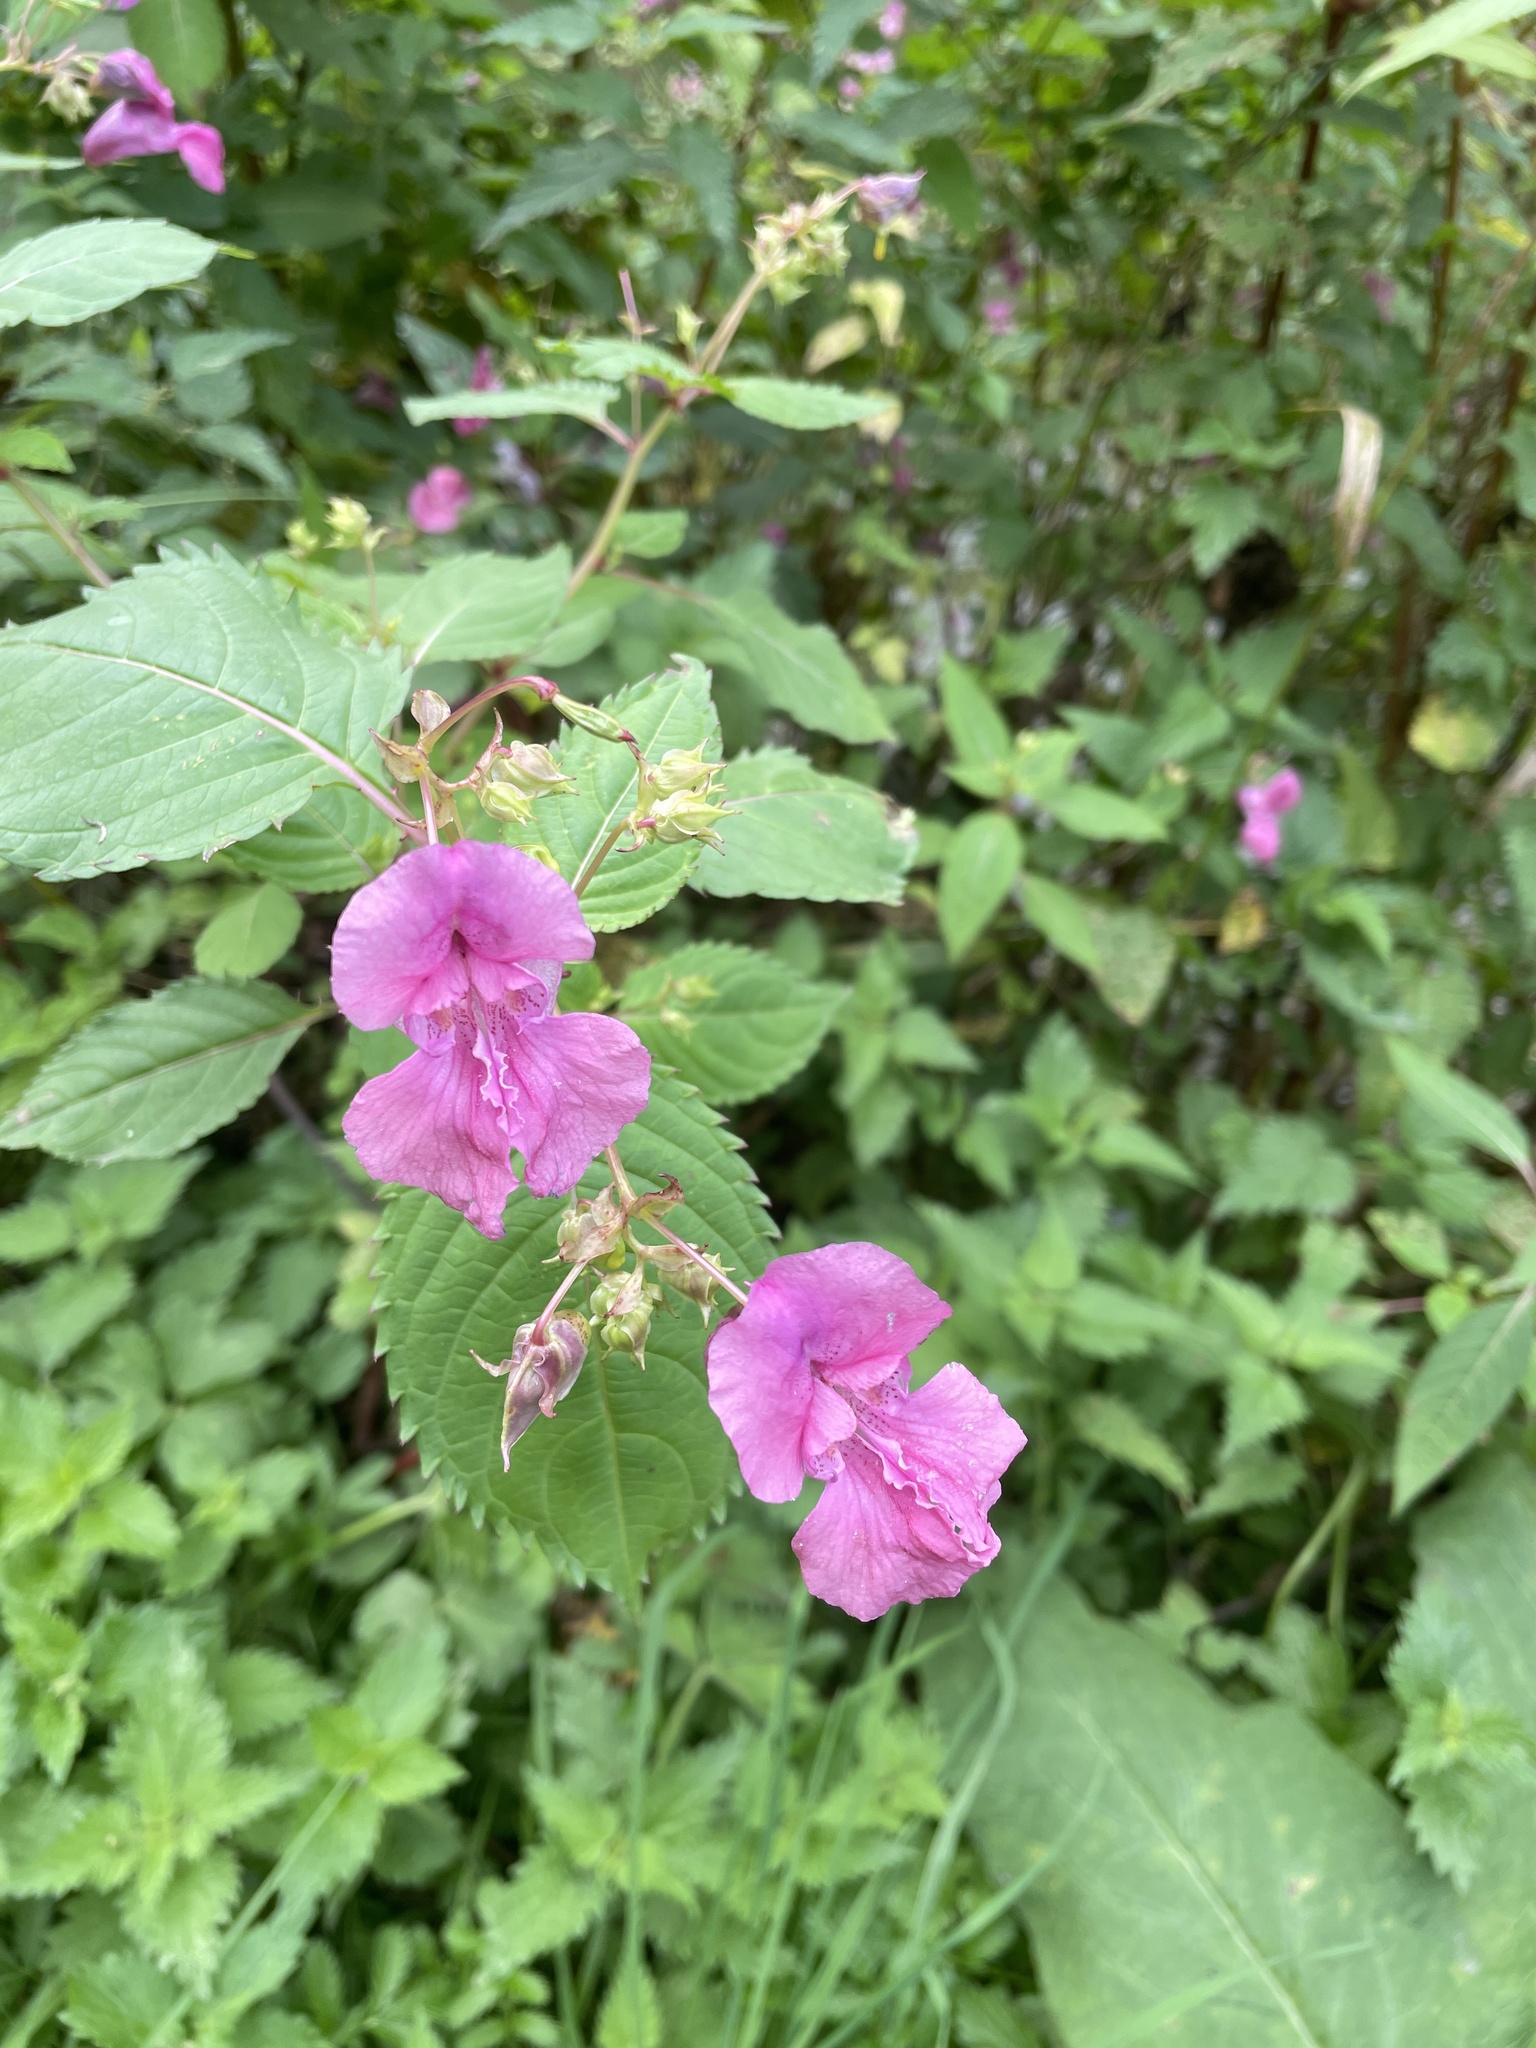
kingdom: Plantae
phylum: Tracheophyta
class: Magnoliopsida
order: Ericales
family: Balsaminaceae
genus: Impatiens
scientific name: Impatiens glandulifera
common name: Himalayan balsam
